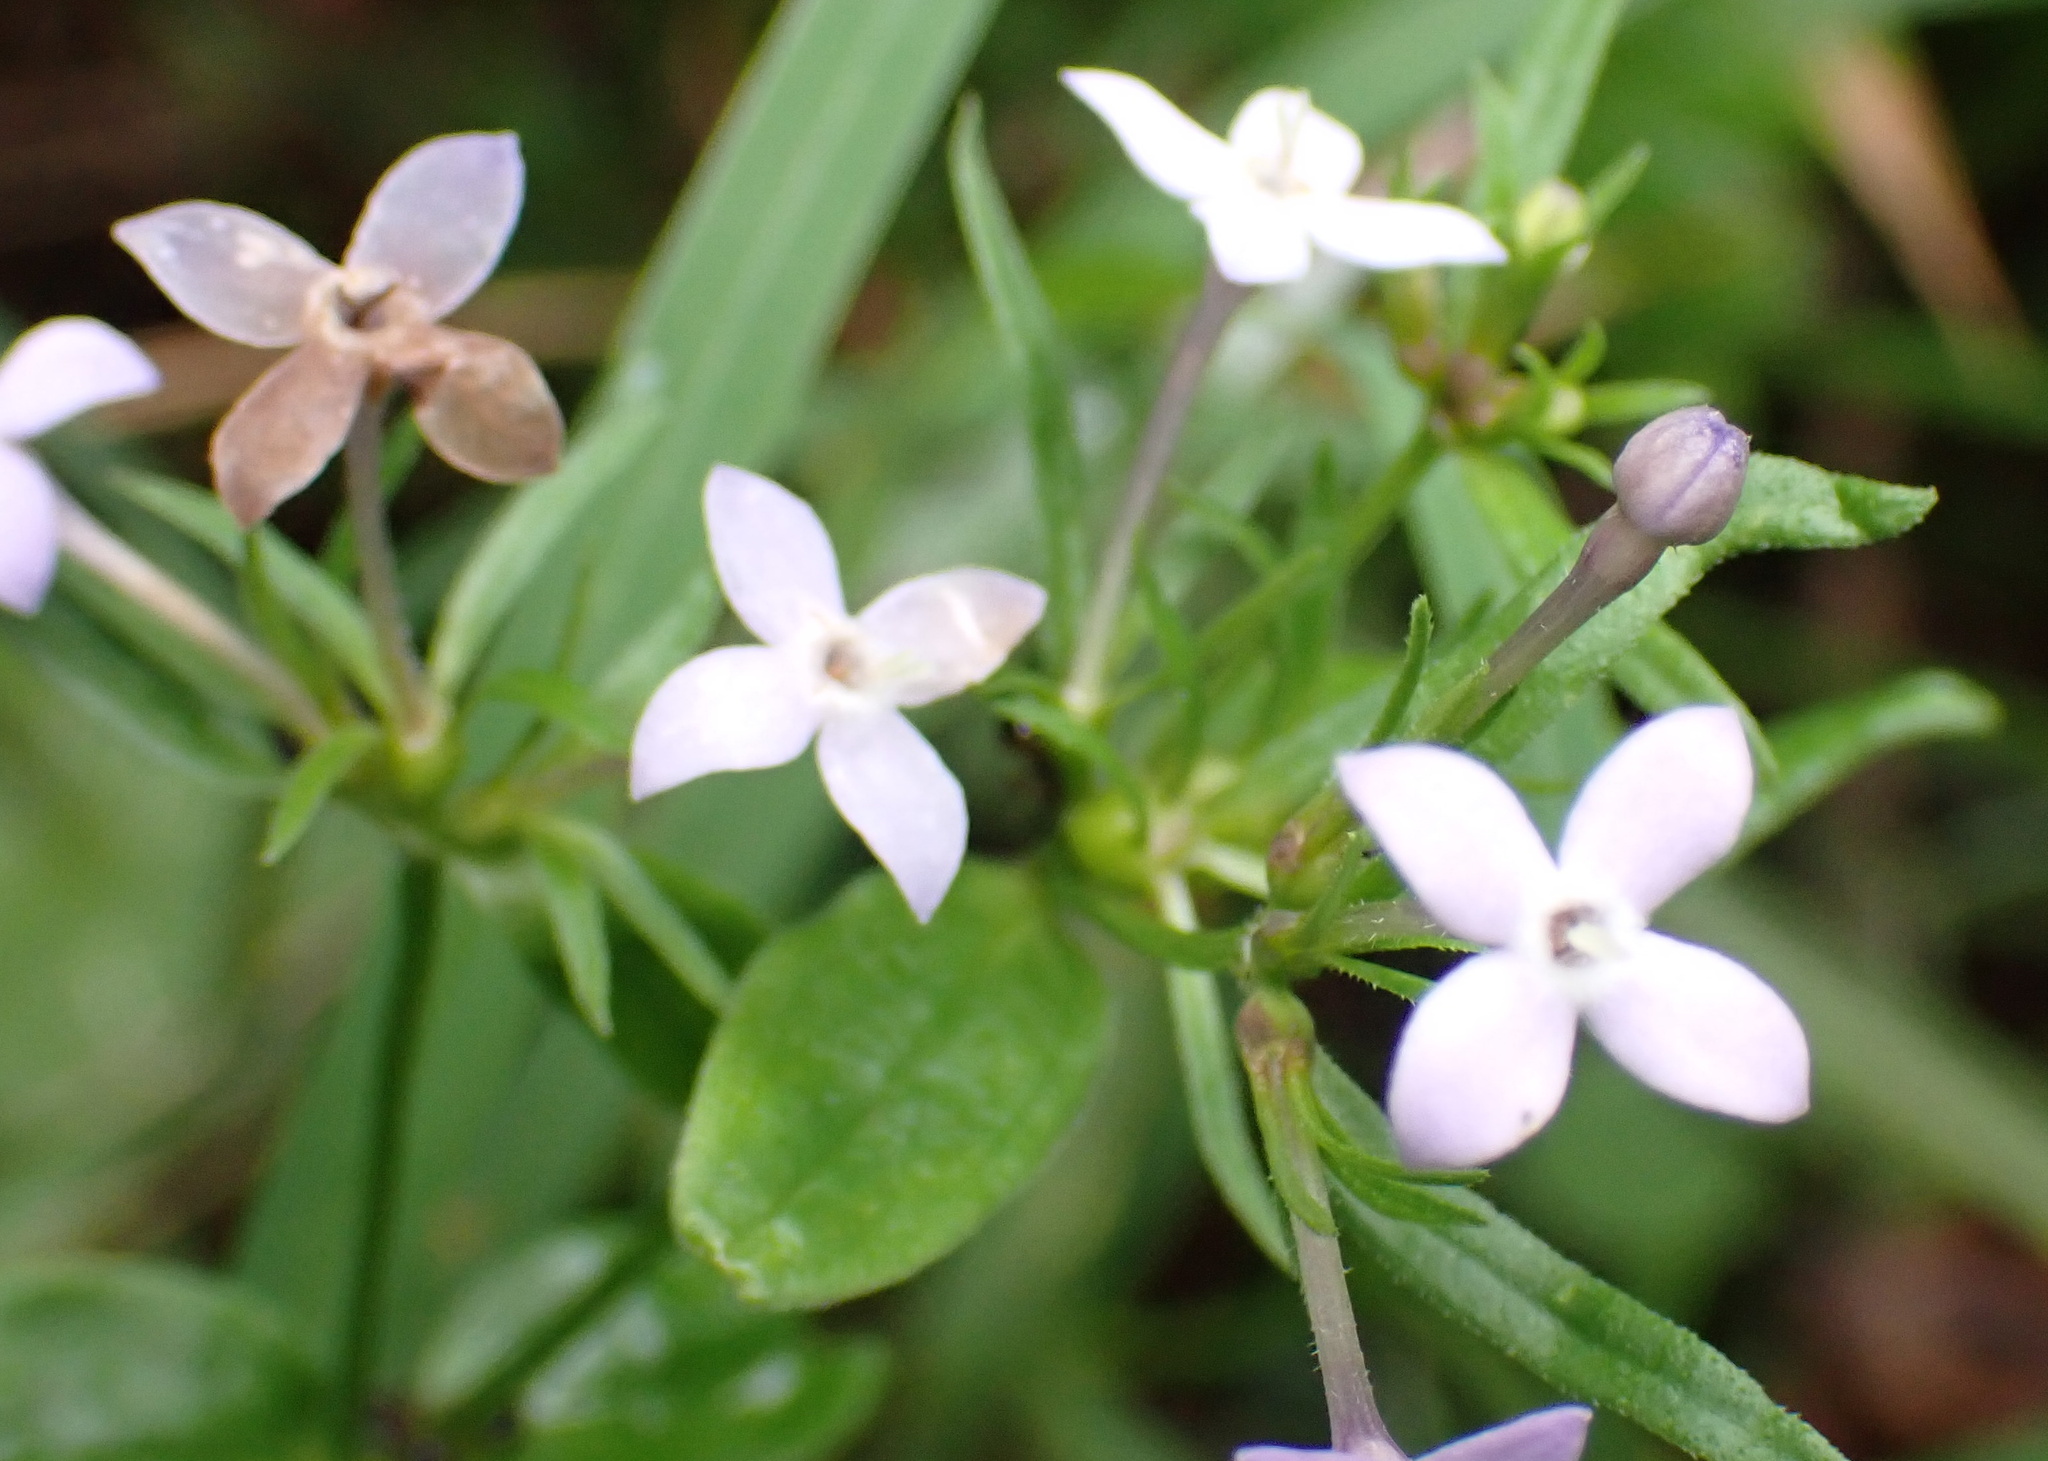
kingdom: Plantae
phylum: Tracheophyta
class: Magnoliopsida
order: Gentianales
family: Rubiaceae
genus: Conostomium
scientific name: Conostomium natalense
